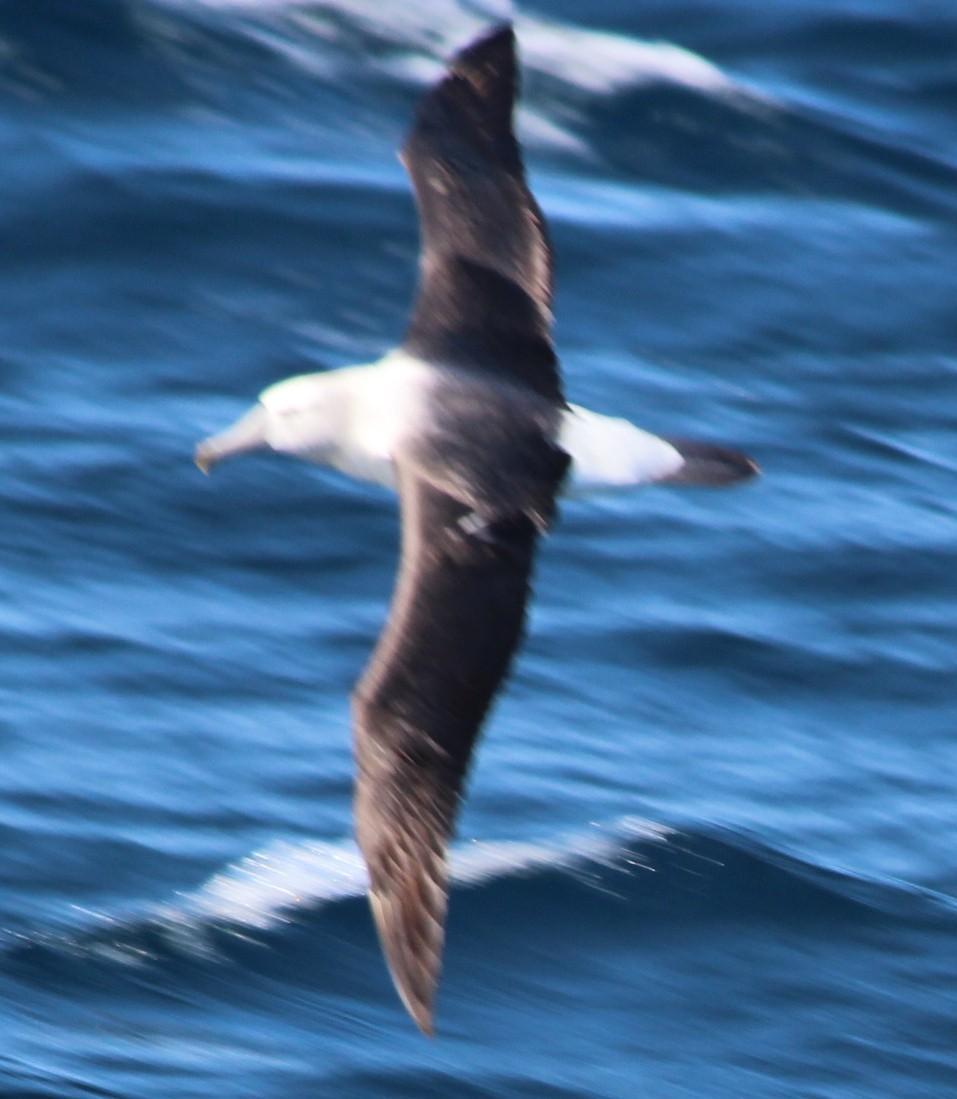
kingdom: Animalia
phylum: Chordata
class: Aves
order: Procellariiformes
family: Diomedeidae
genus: Thalassarche
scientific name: Thalassarche cauta
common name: Shy albatross
